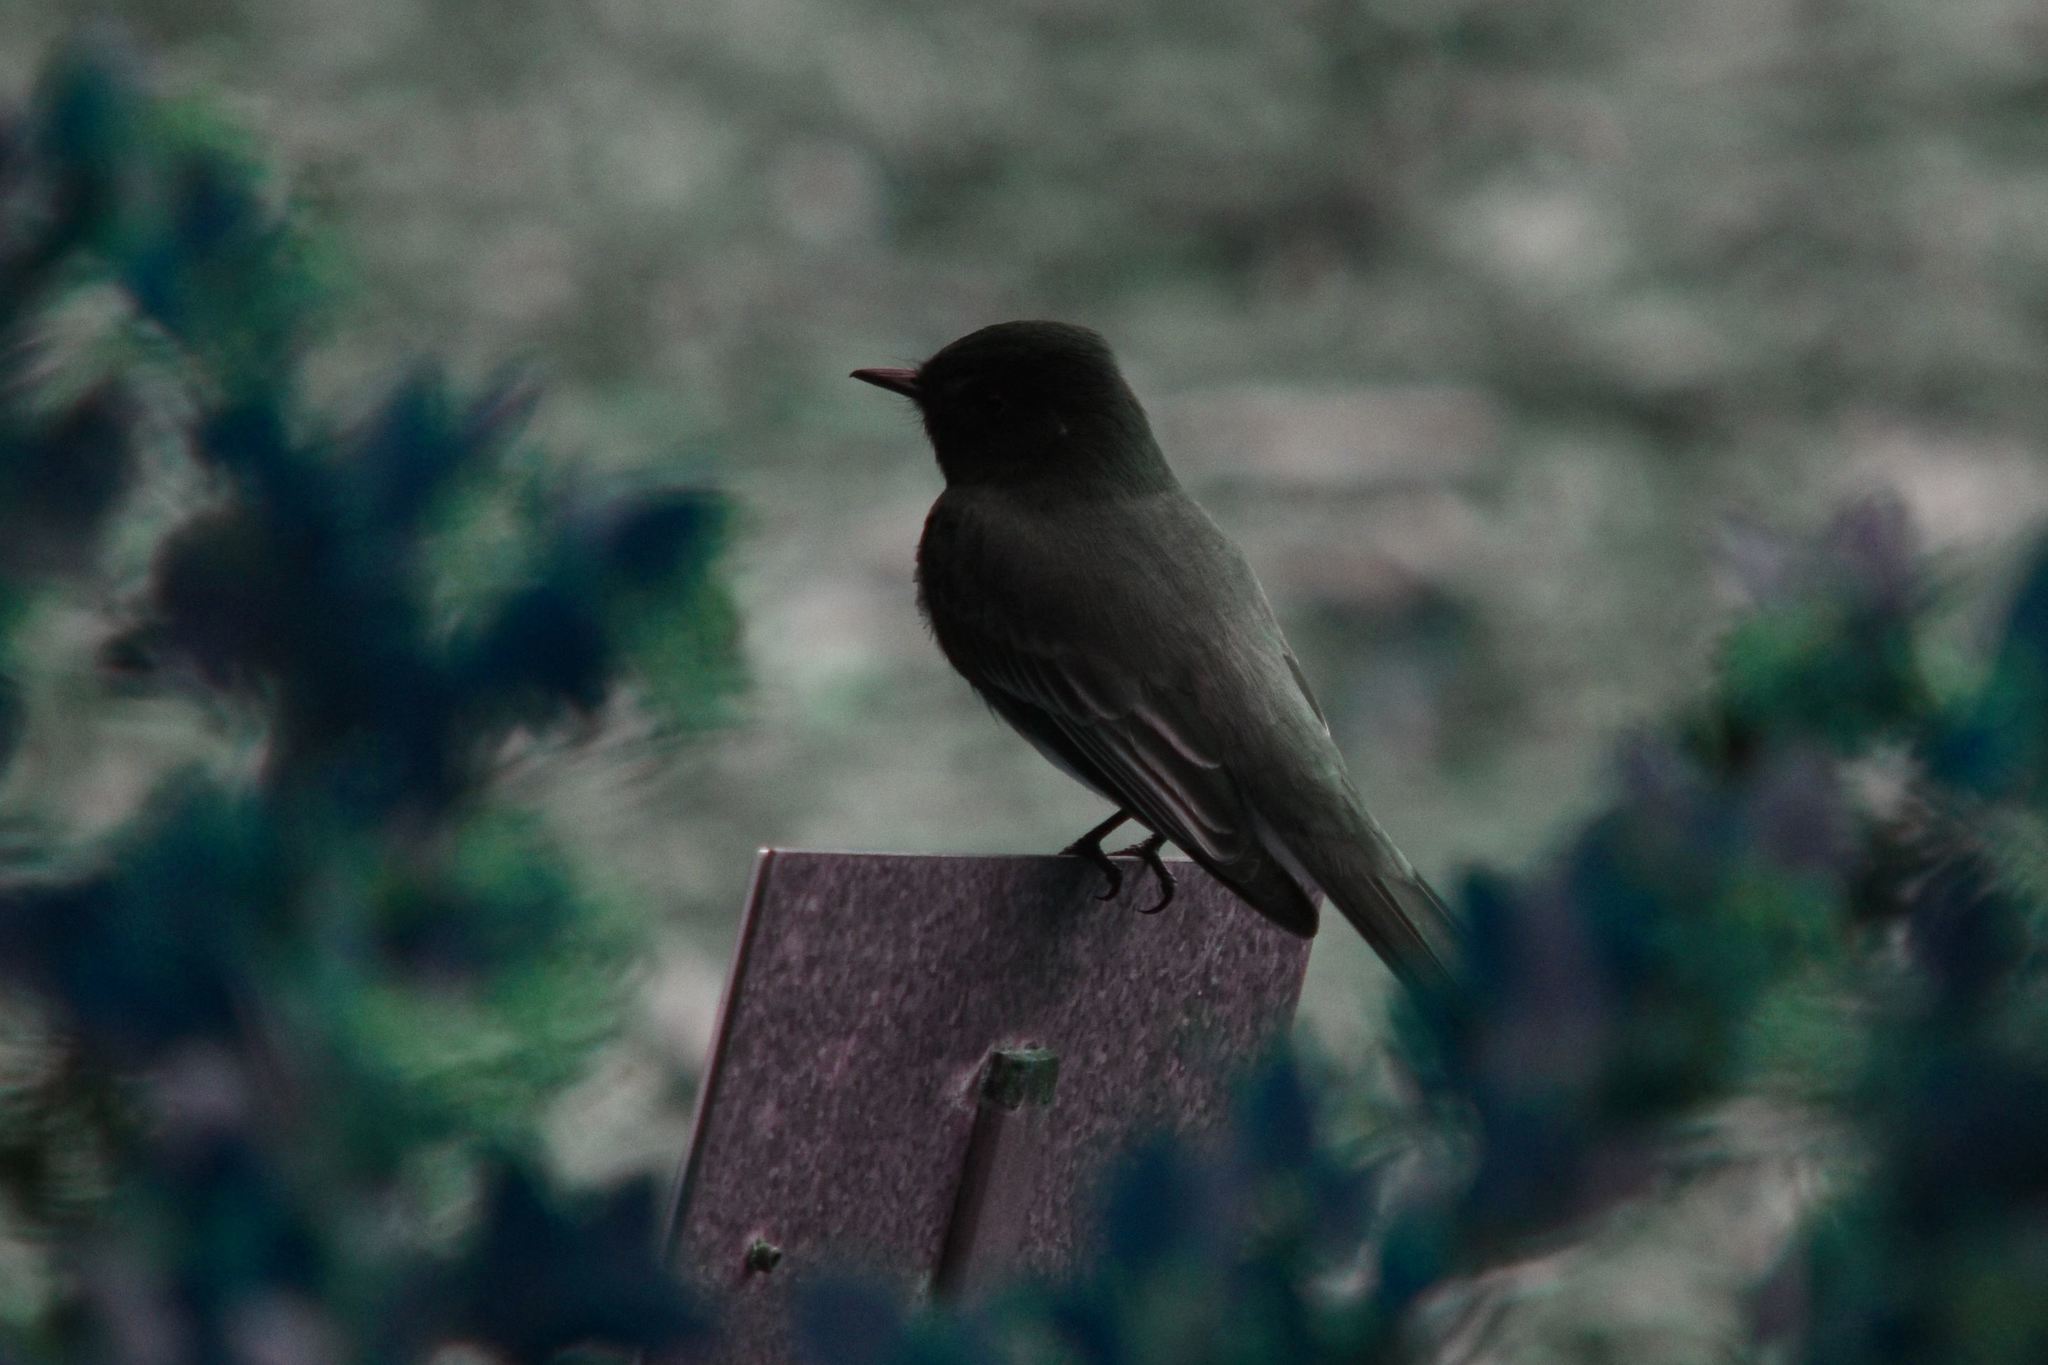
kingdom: Animalia
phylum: Chordata
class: Aves
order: Passeriformes
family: Tyrannidae
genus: Sayornis
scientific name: Sayornis nigricans
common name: Black phoebe
